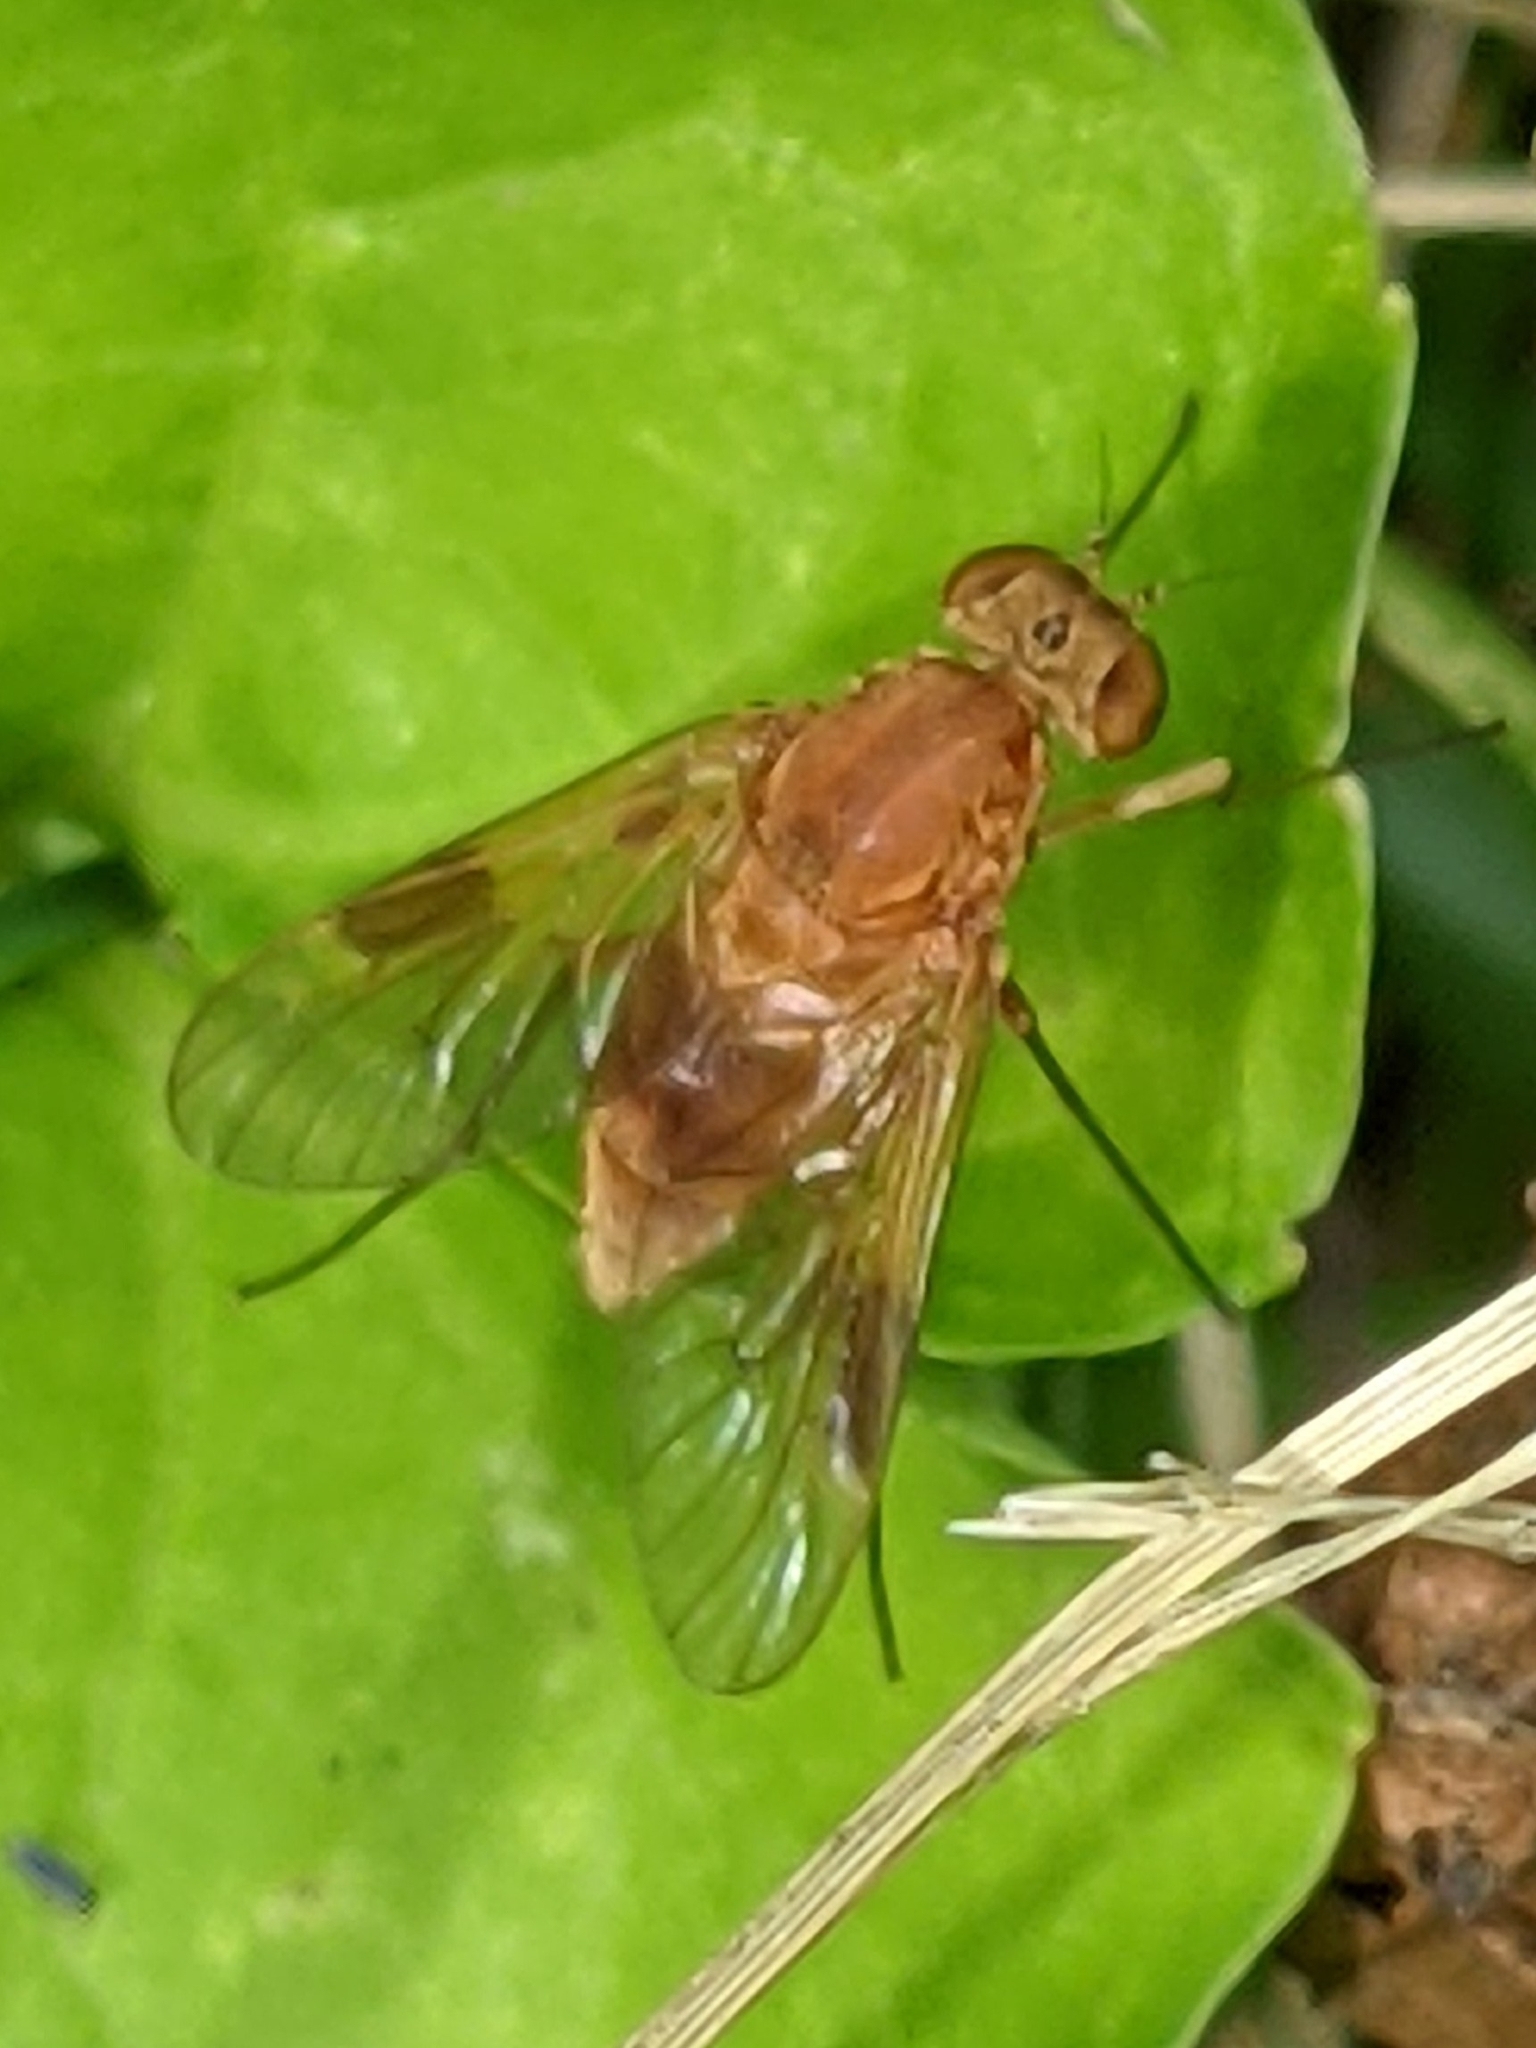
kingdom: Animalia
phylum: Arthropoda
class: Insecta
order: Diptera
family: Rhagionidae
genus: Chrysopilus
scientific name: Chrysopilus quadratus
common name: Quadrate snipe fly
